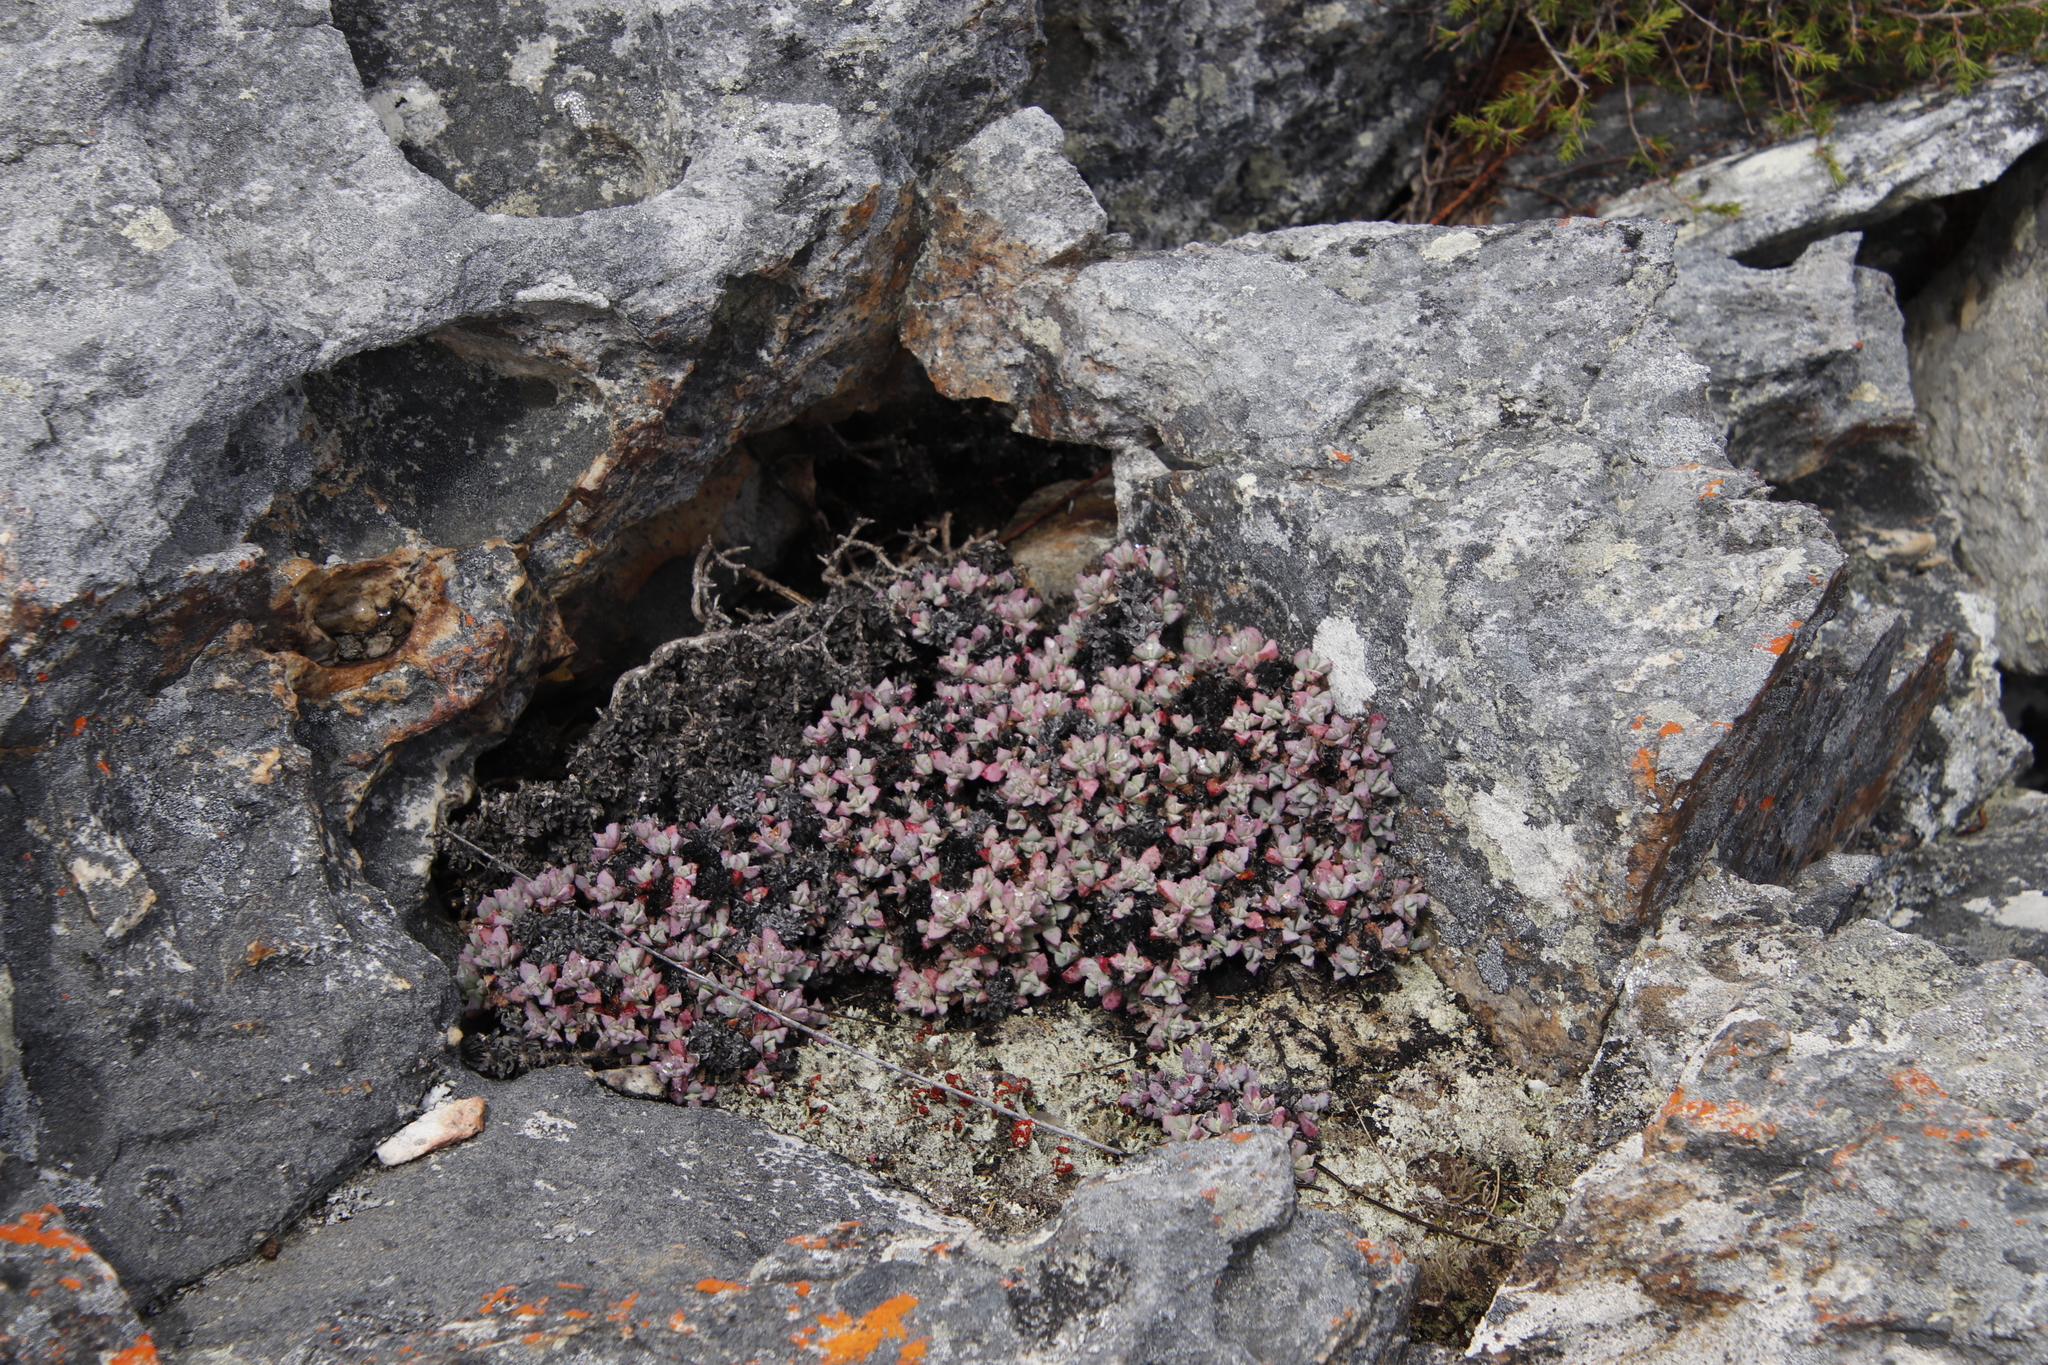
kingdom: Plantae
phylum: Tracheophyta
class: Magnoliopsida
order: Caryophyllales
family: Aizoaceae
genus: Oscularia
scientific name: Oscularia deltoides
